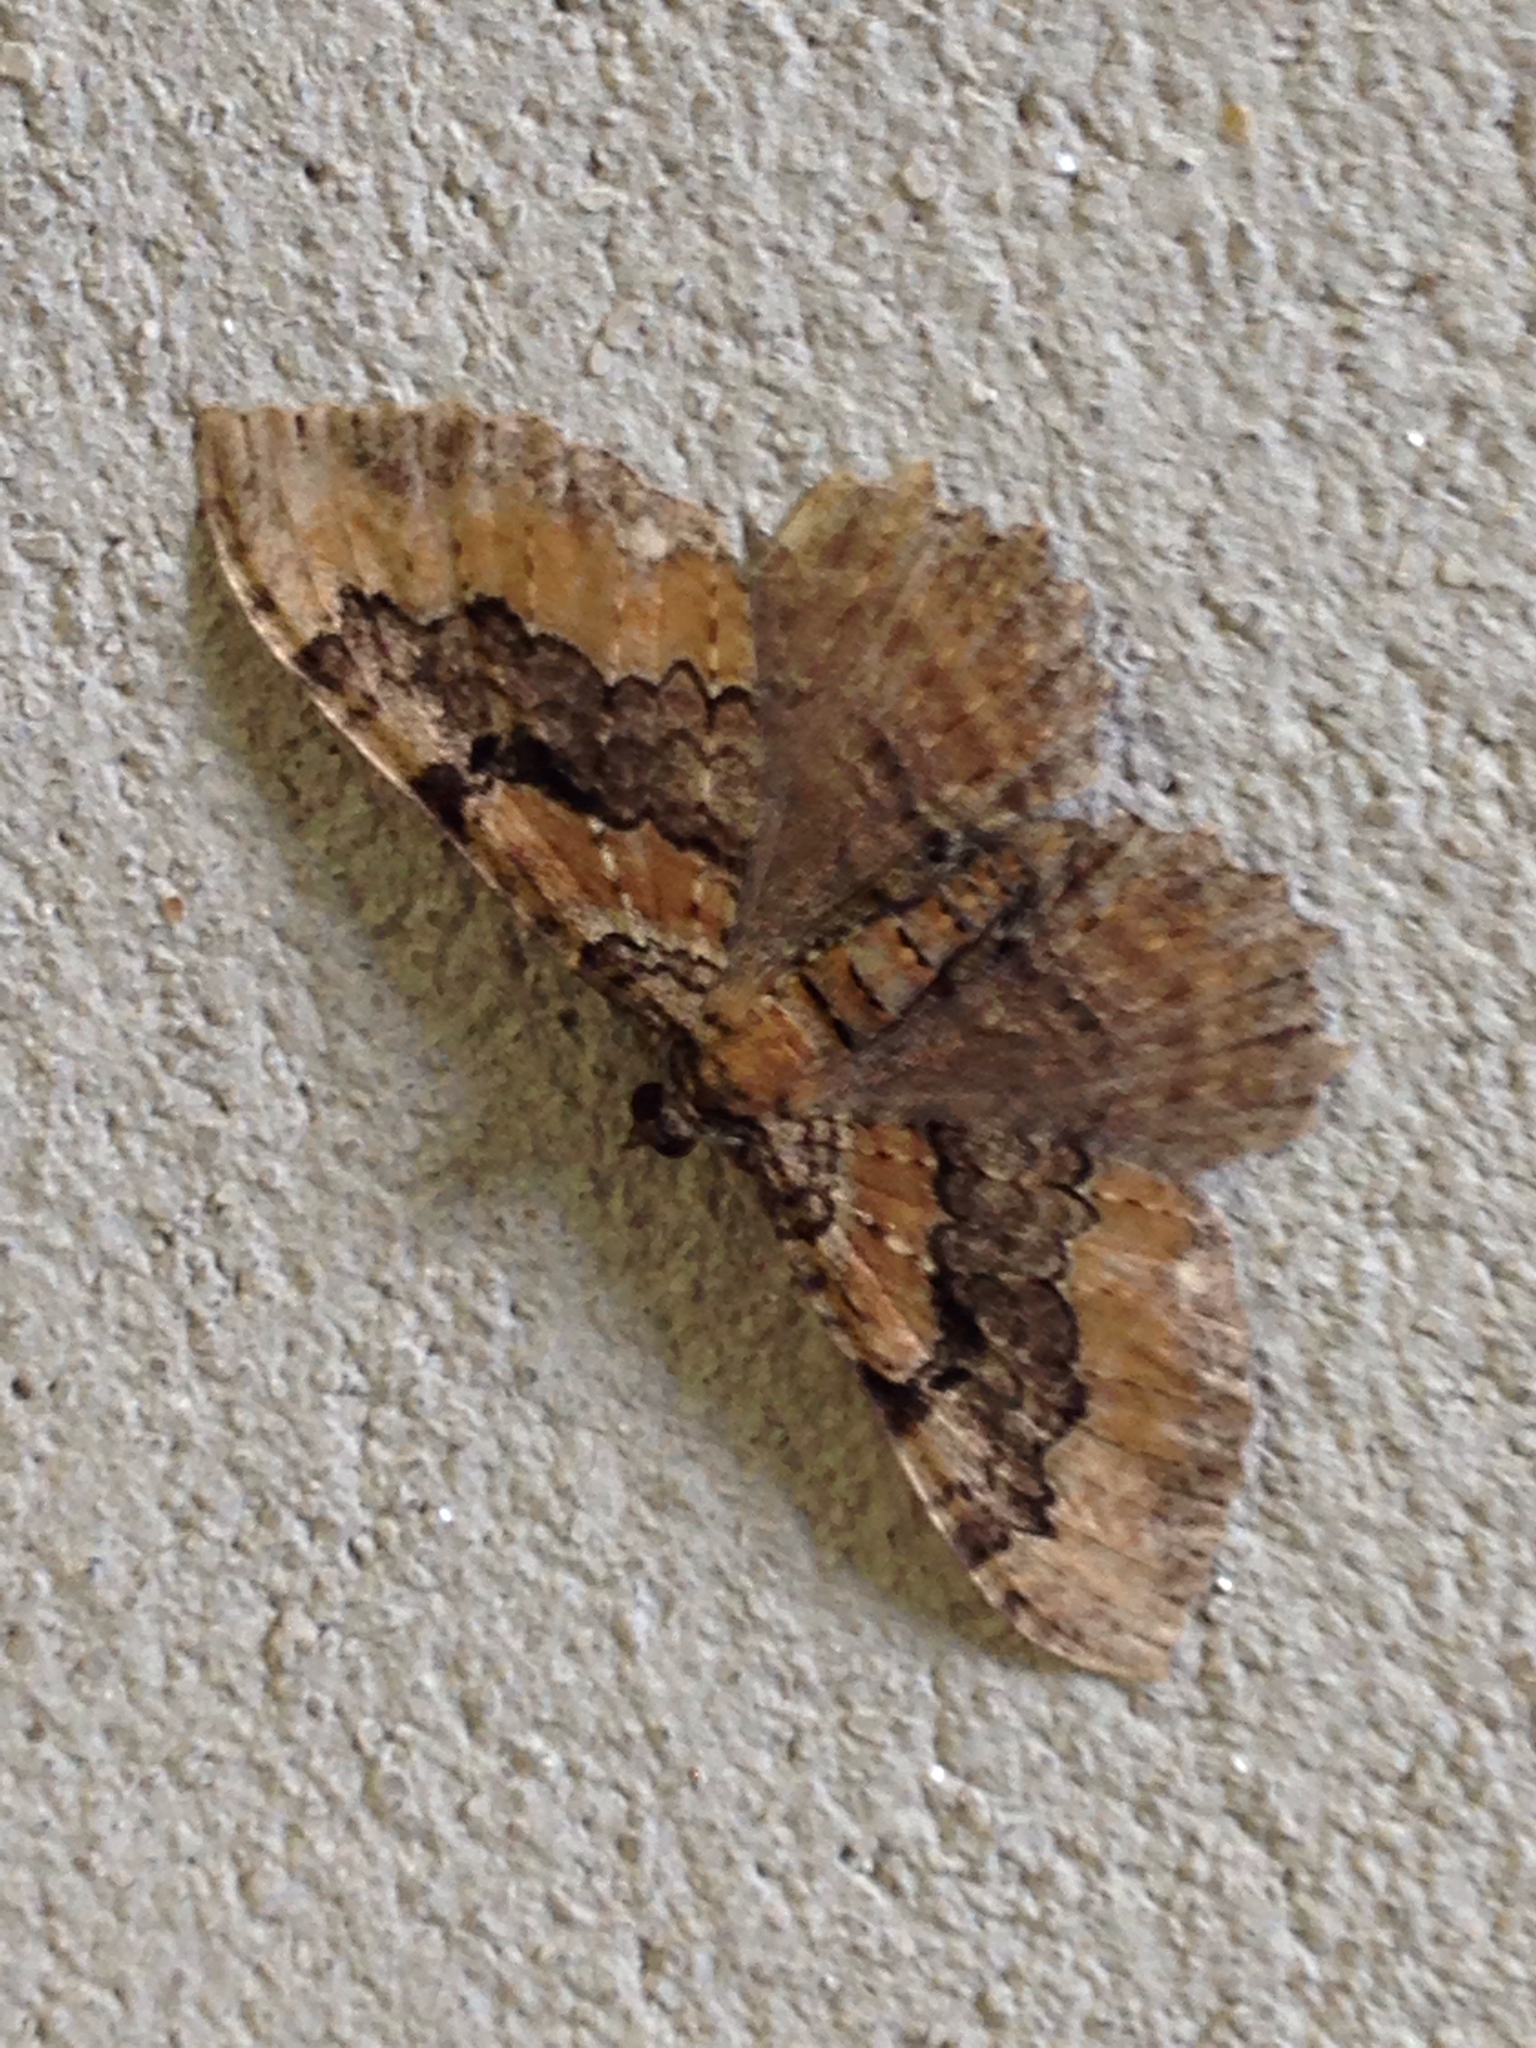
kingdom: Animalia
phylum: Arthropoda
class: Insecta
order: Lepidoptera
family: Geometridae
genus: Rheumaptera
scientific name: Rheumaptera
